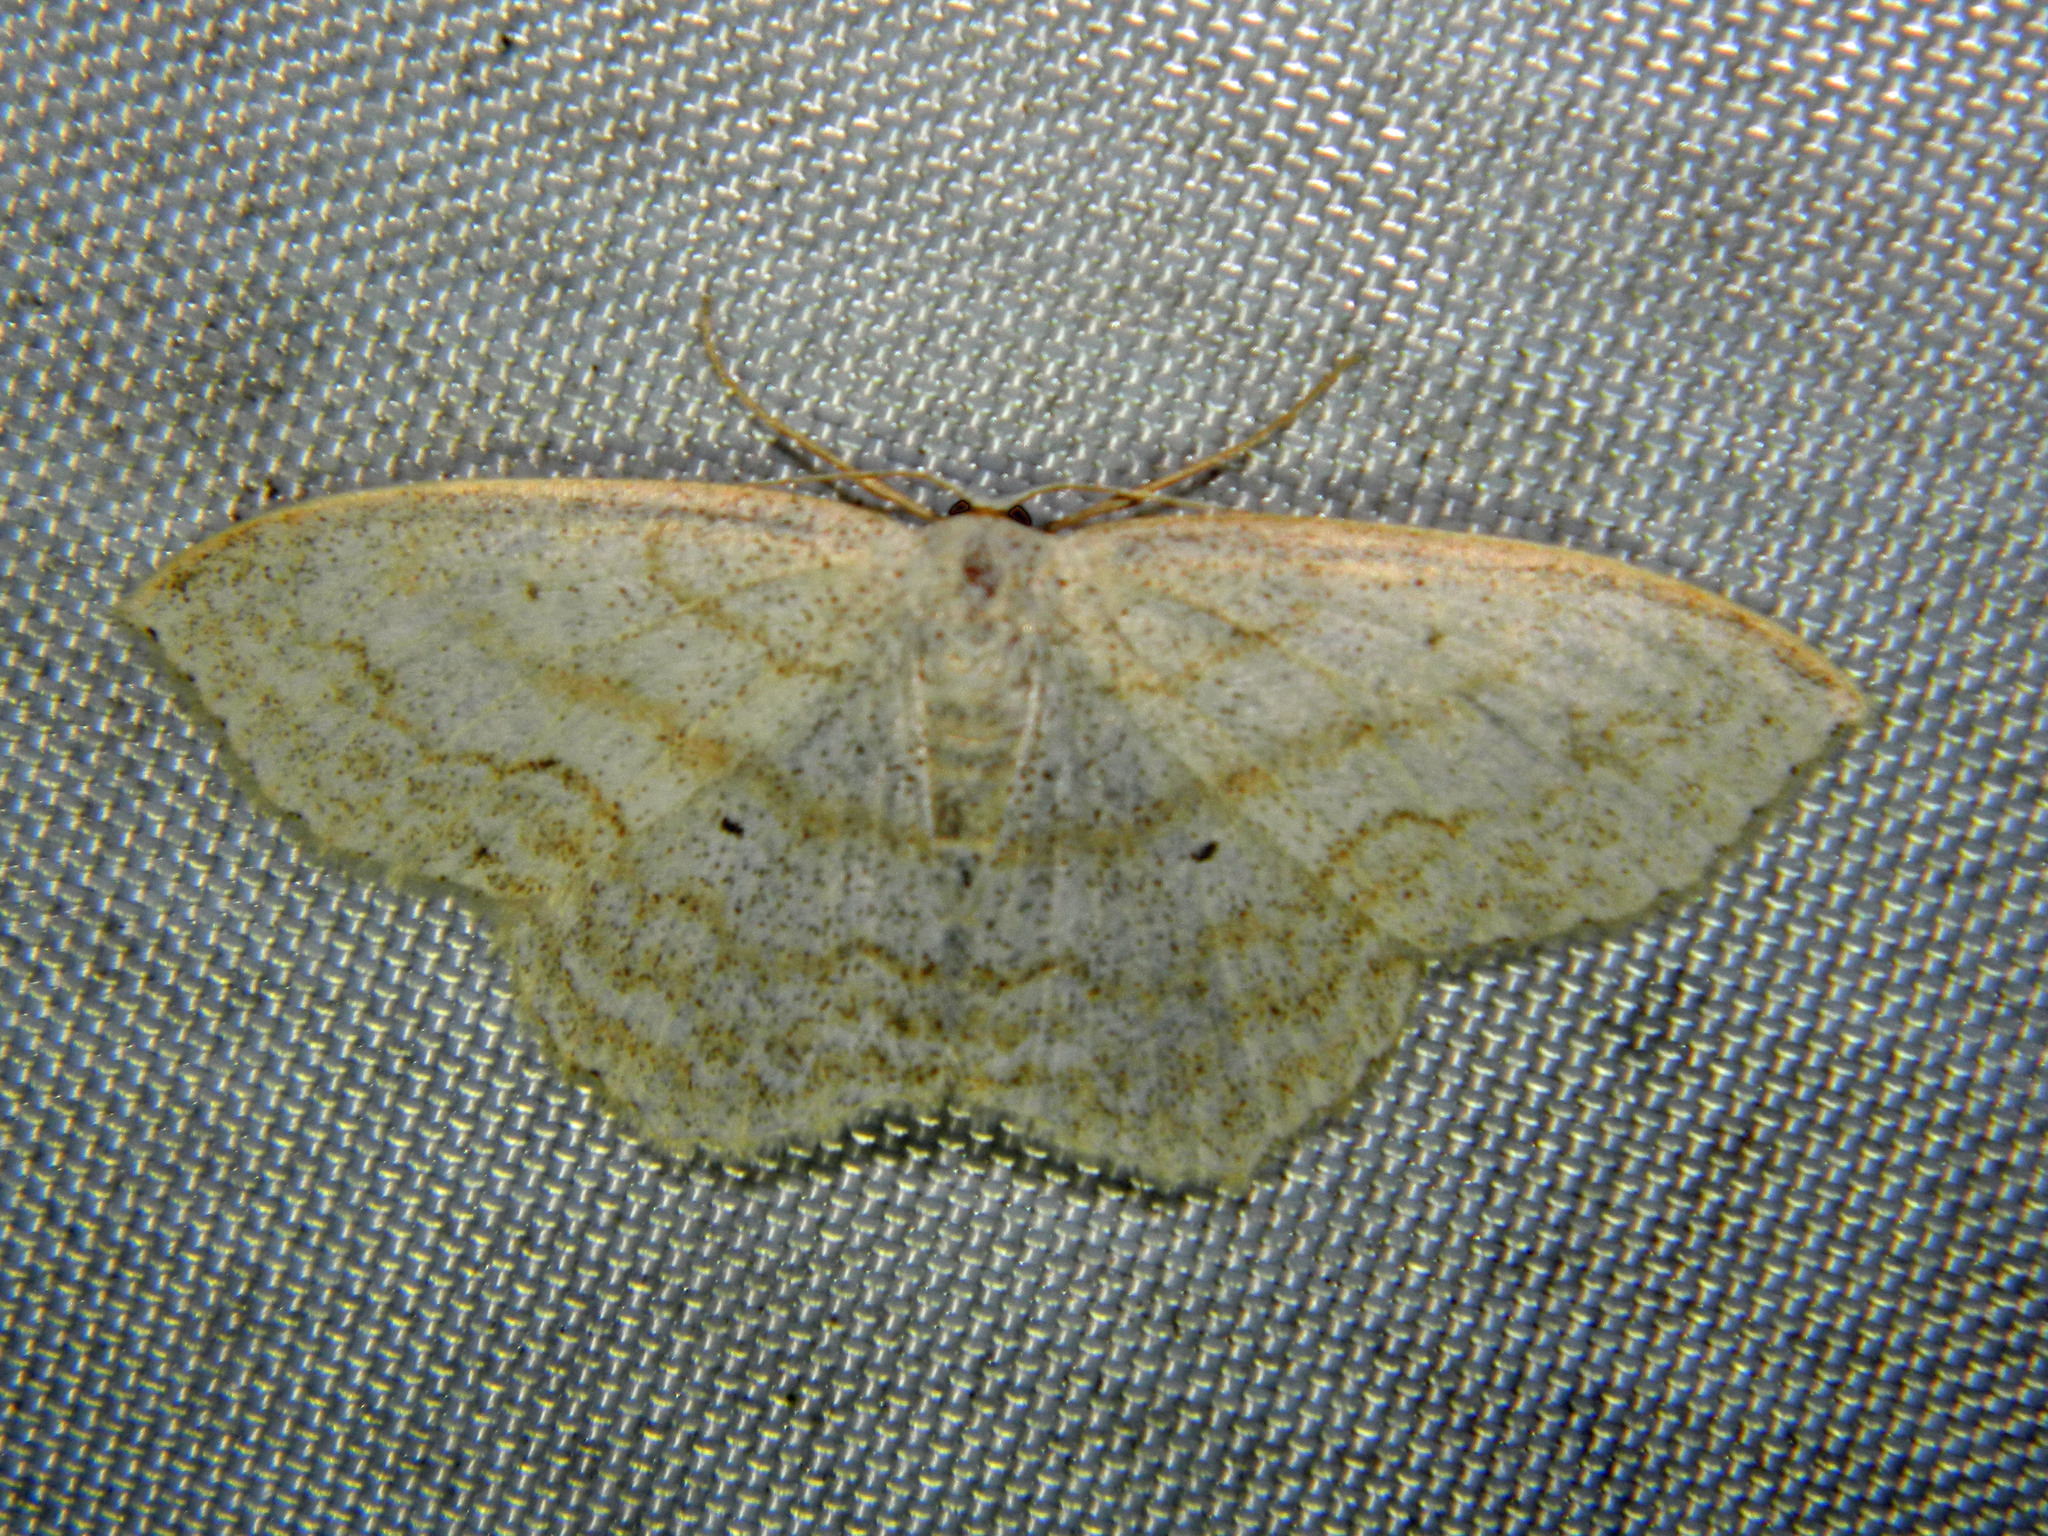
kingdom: Animalia
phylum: Arthropoda
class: Insecta
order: Lepidoptera
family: Geometridae
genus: Scopula
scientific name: Scopula limboundata
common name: Large lace border
